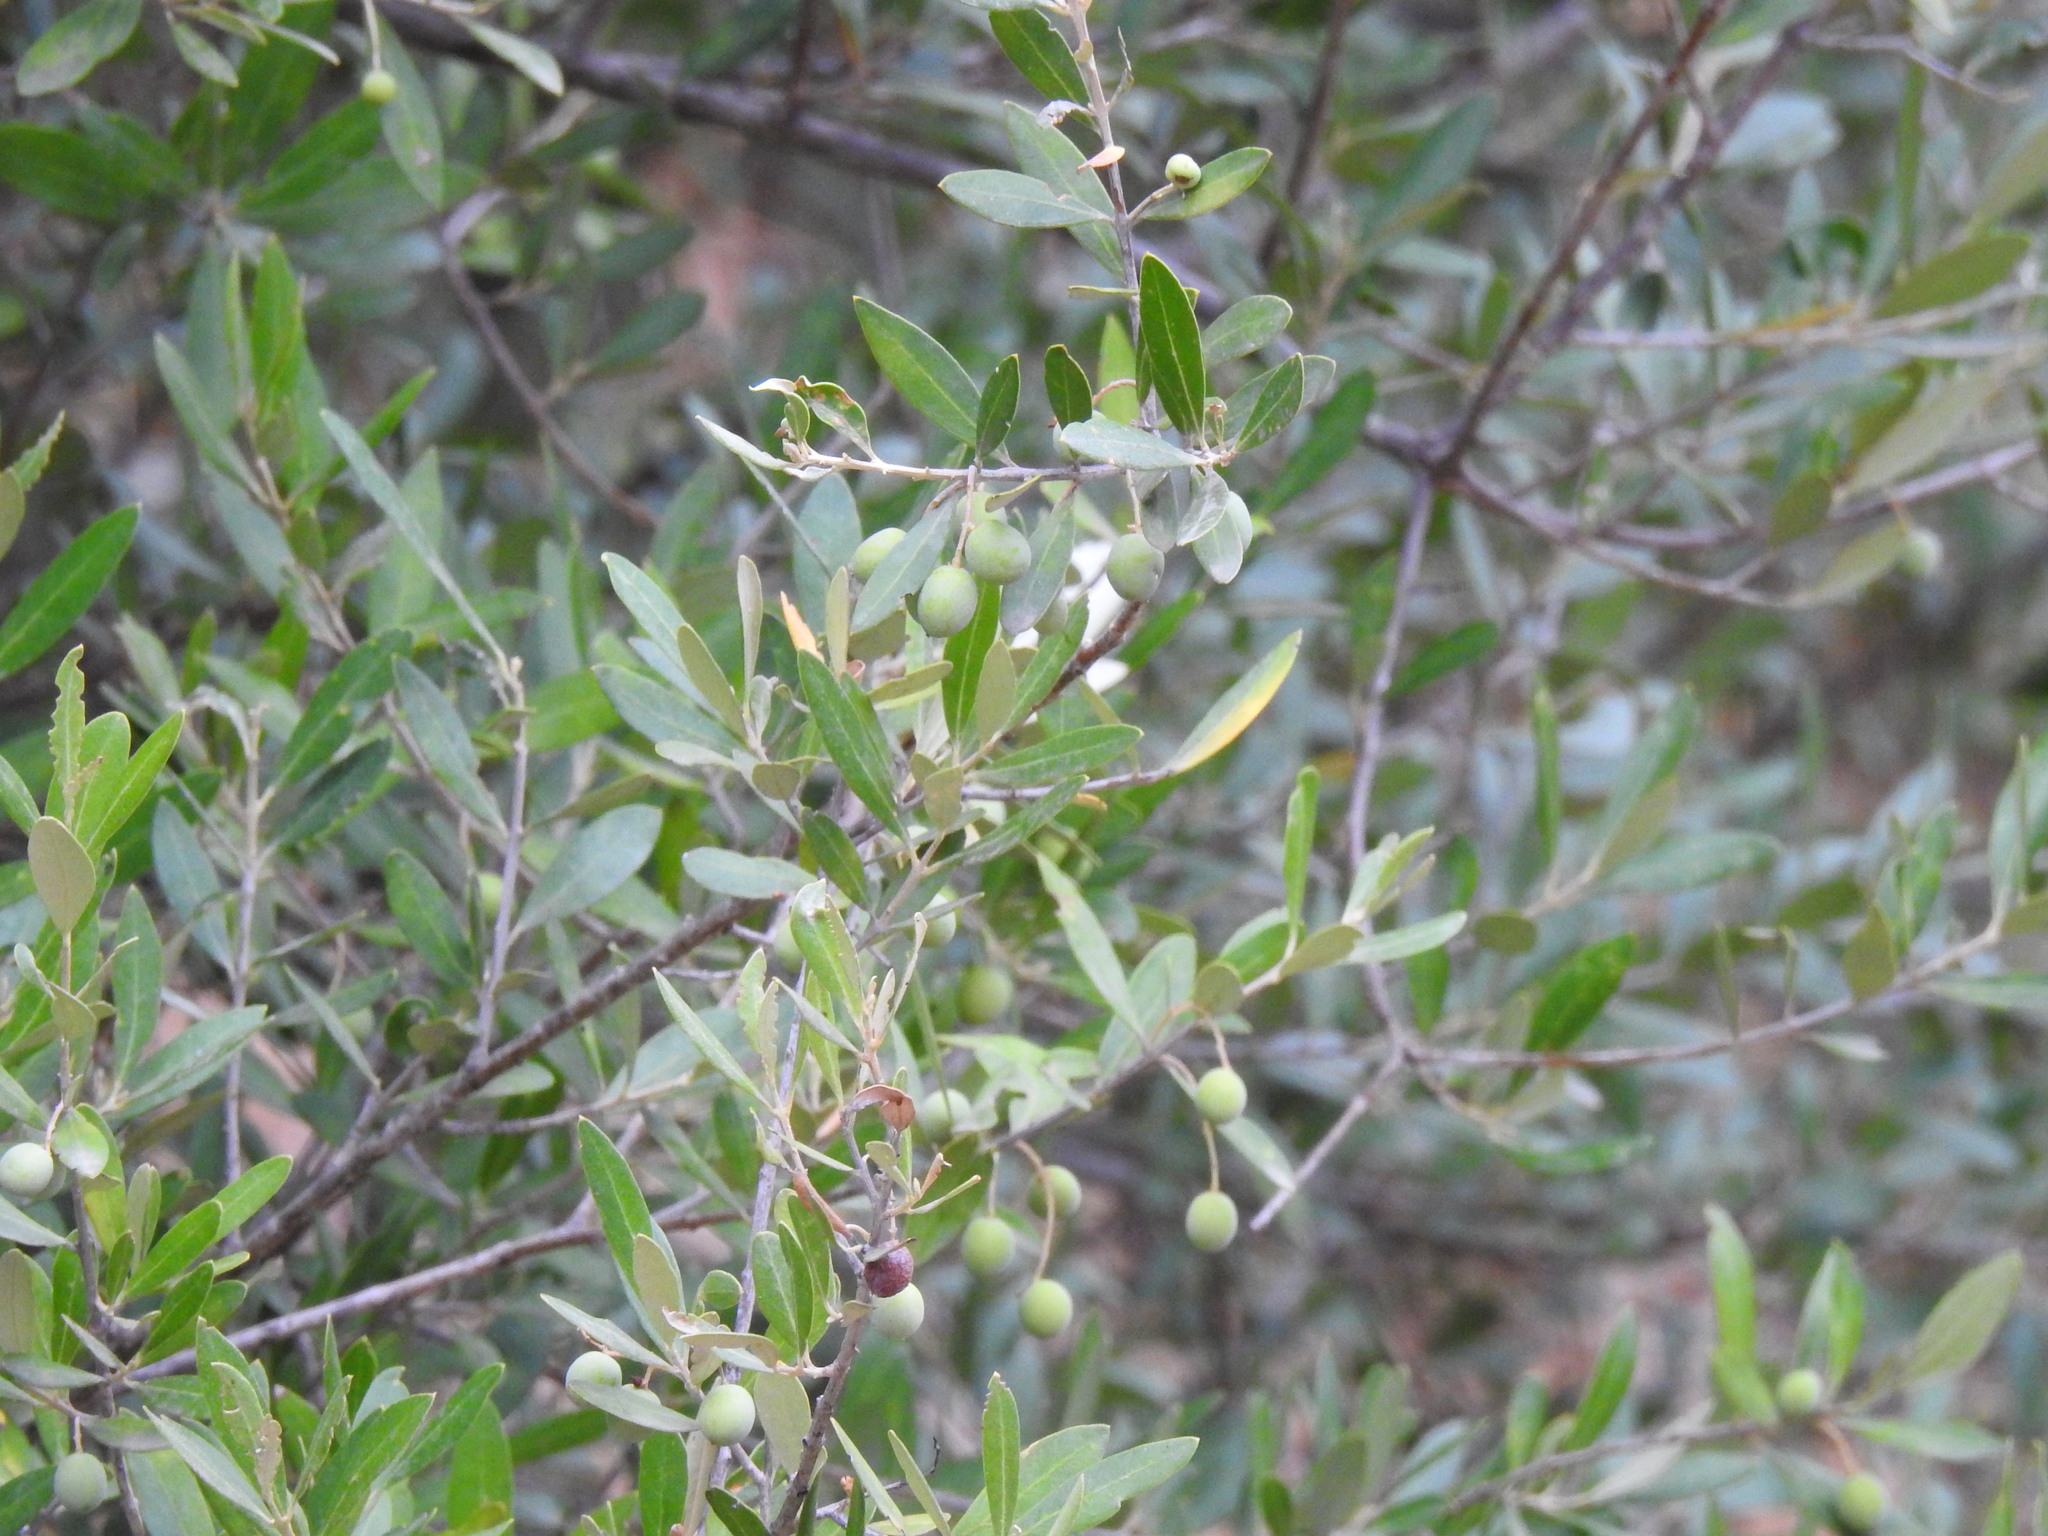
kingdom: Plantae
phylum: Tracheophyta
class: Magnoliopsida
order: Lamiales
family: Oleaceae
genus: Olea
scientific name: Olea europaea
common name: Olive
